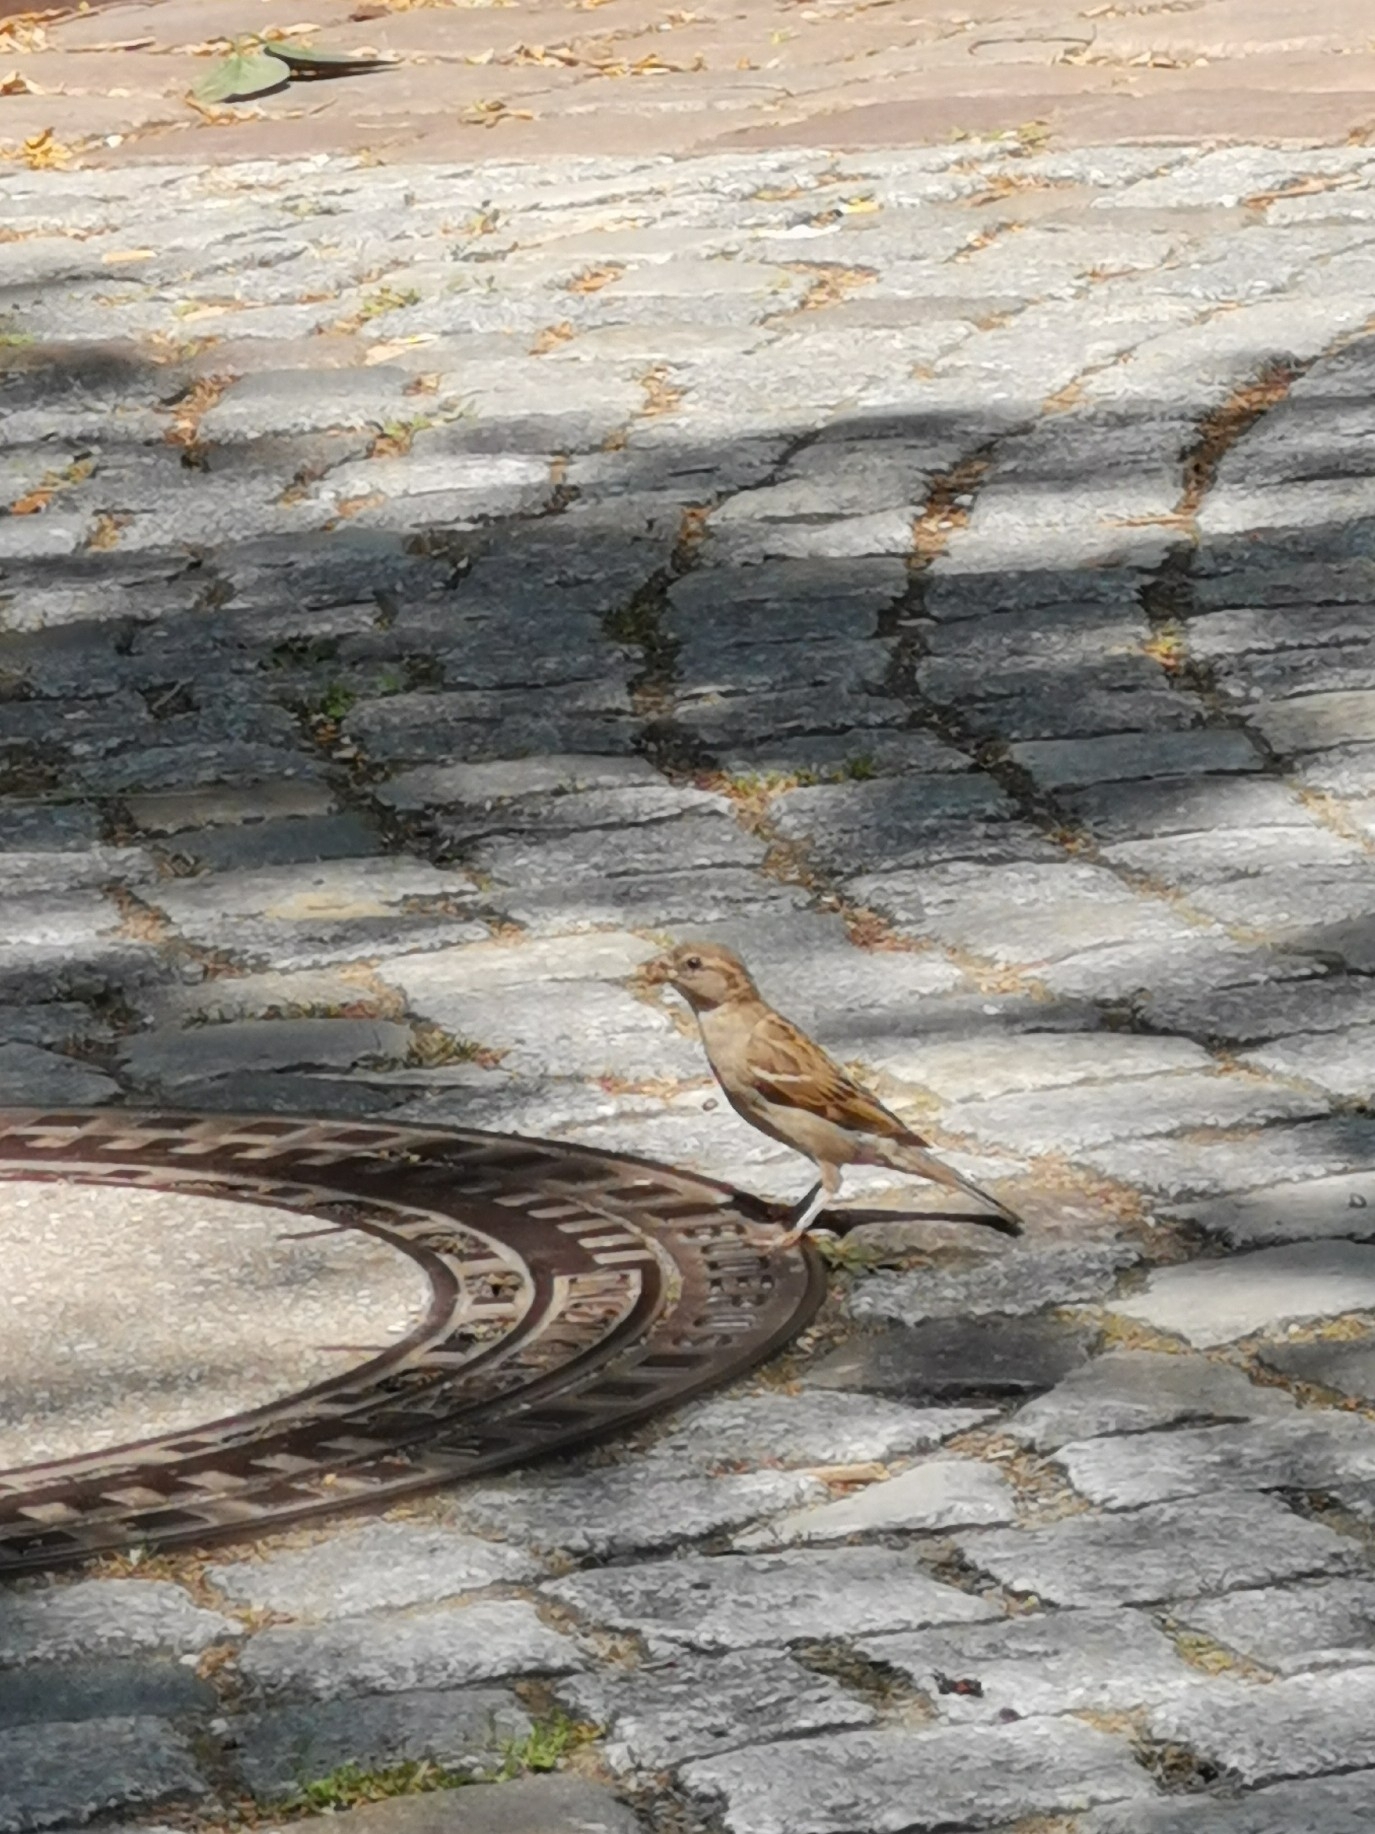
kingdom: Animalia
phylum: Chordata
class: Aves
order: Passeriformes
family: Passeridae
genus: Passer
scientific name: Passer domesticus
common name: House sparrow
